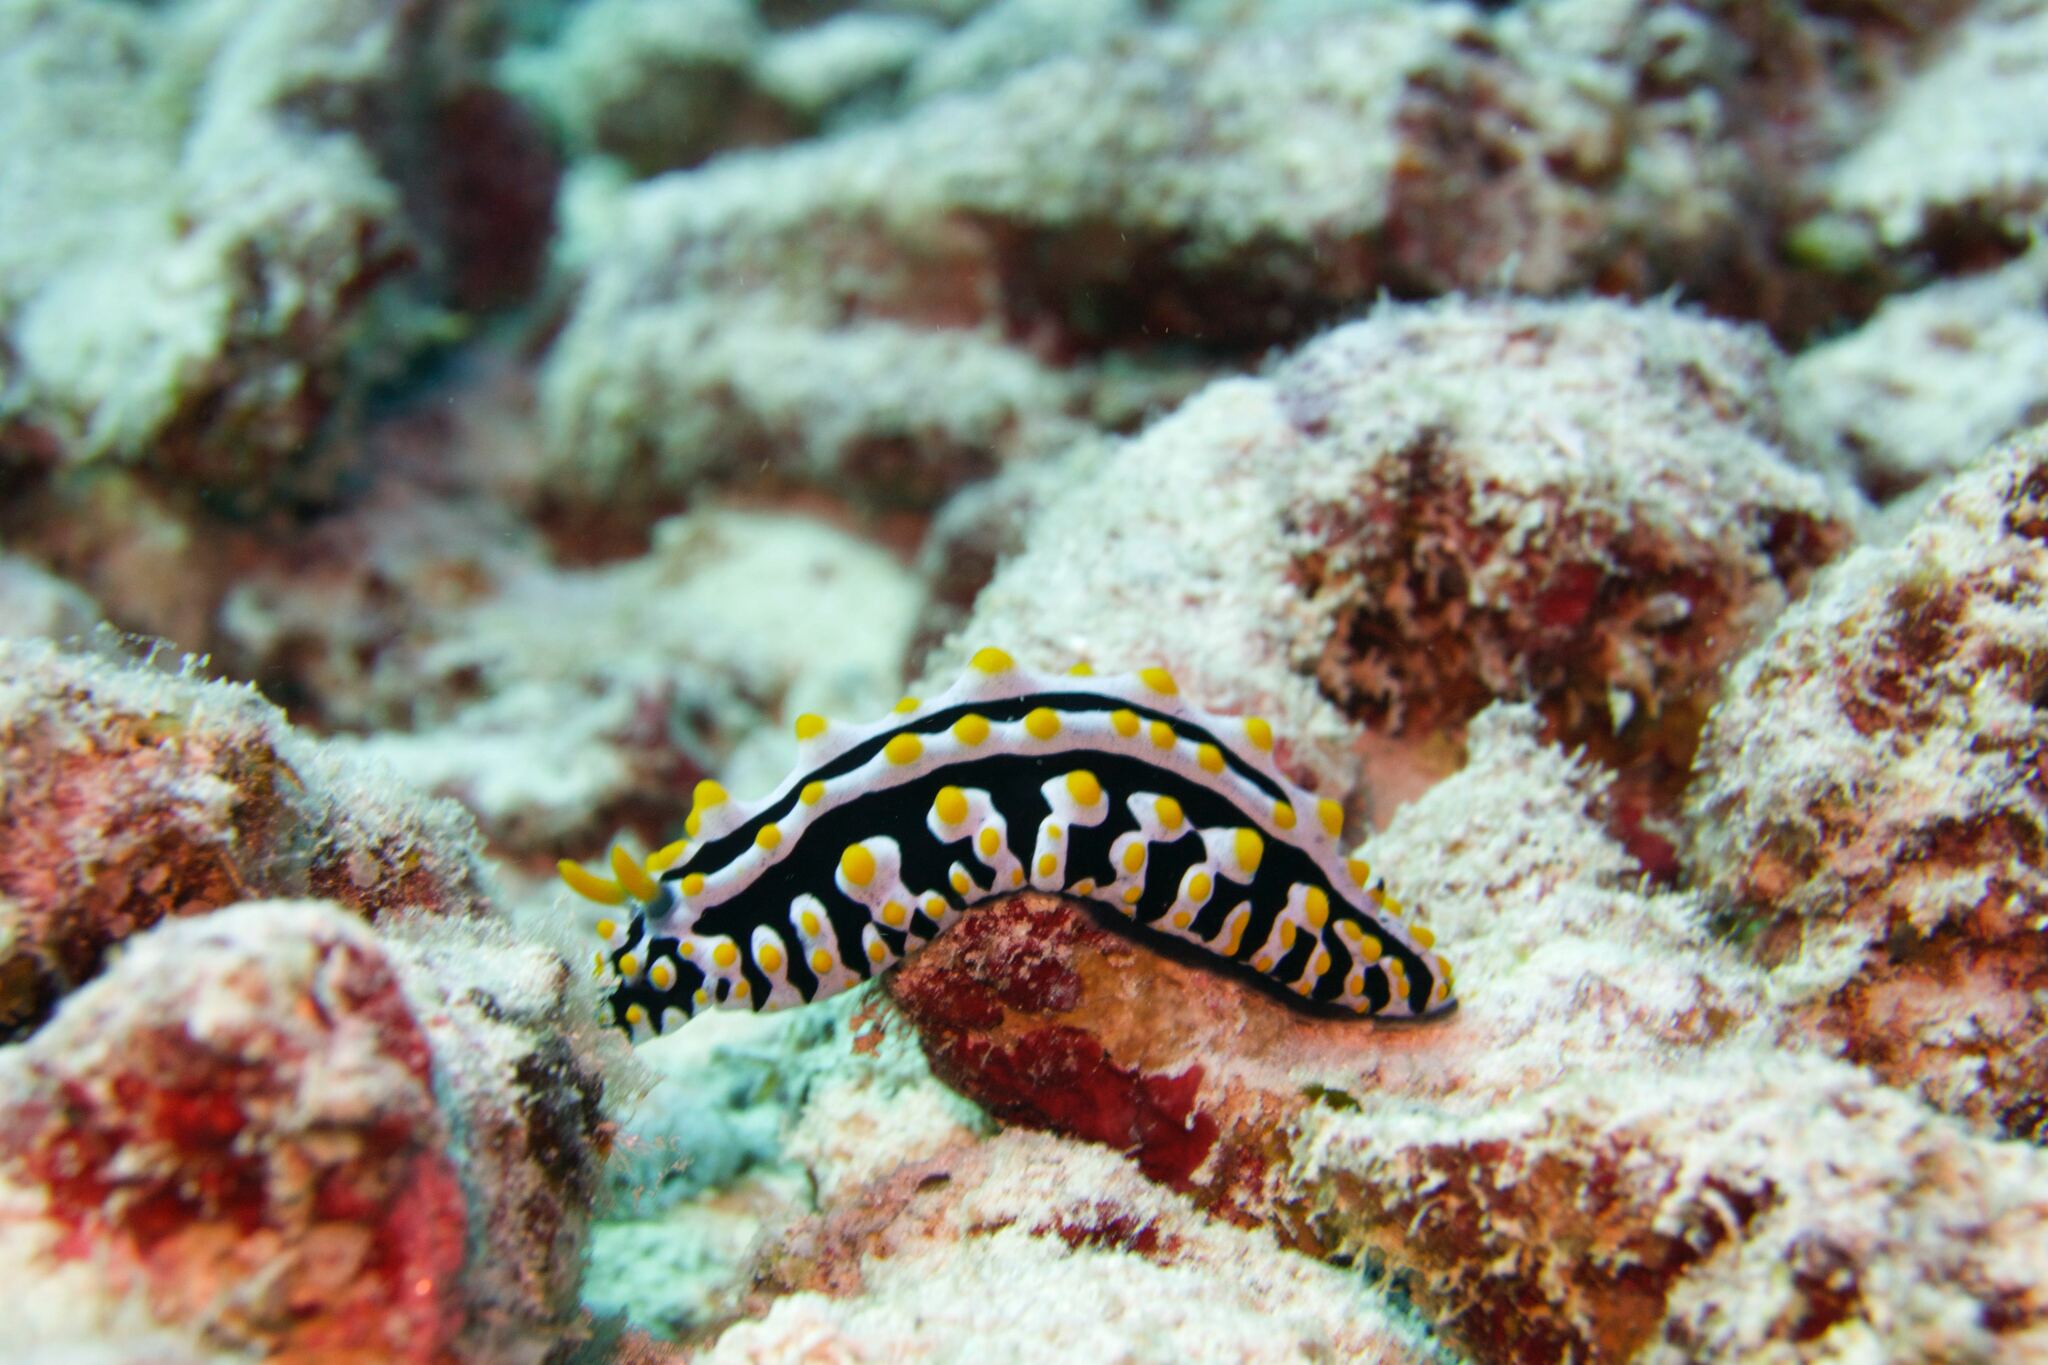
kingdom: Animalia
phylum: Mollusca
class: Gastropoda
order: Nudibranchia
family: Phyllidiidae
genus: Phyllidia
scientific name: Phyllidia varicosa
